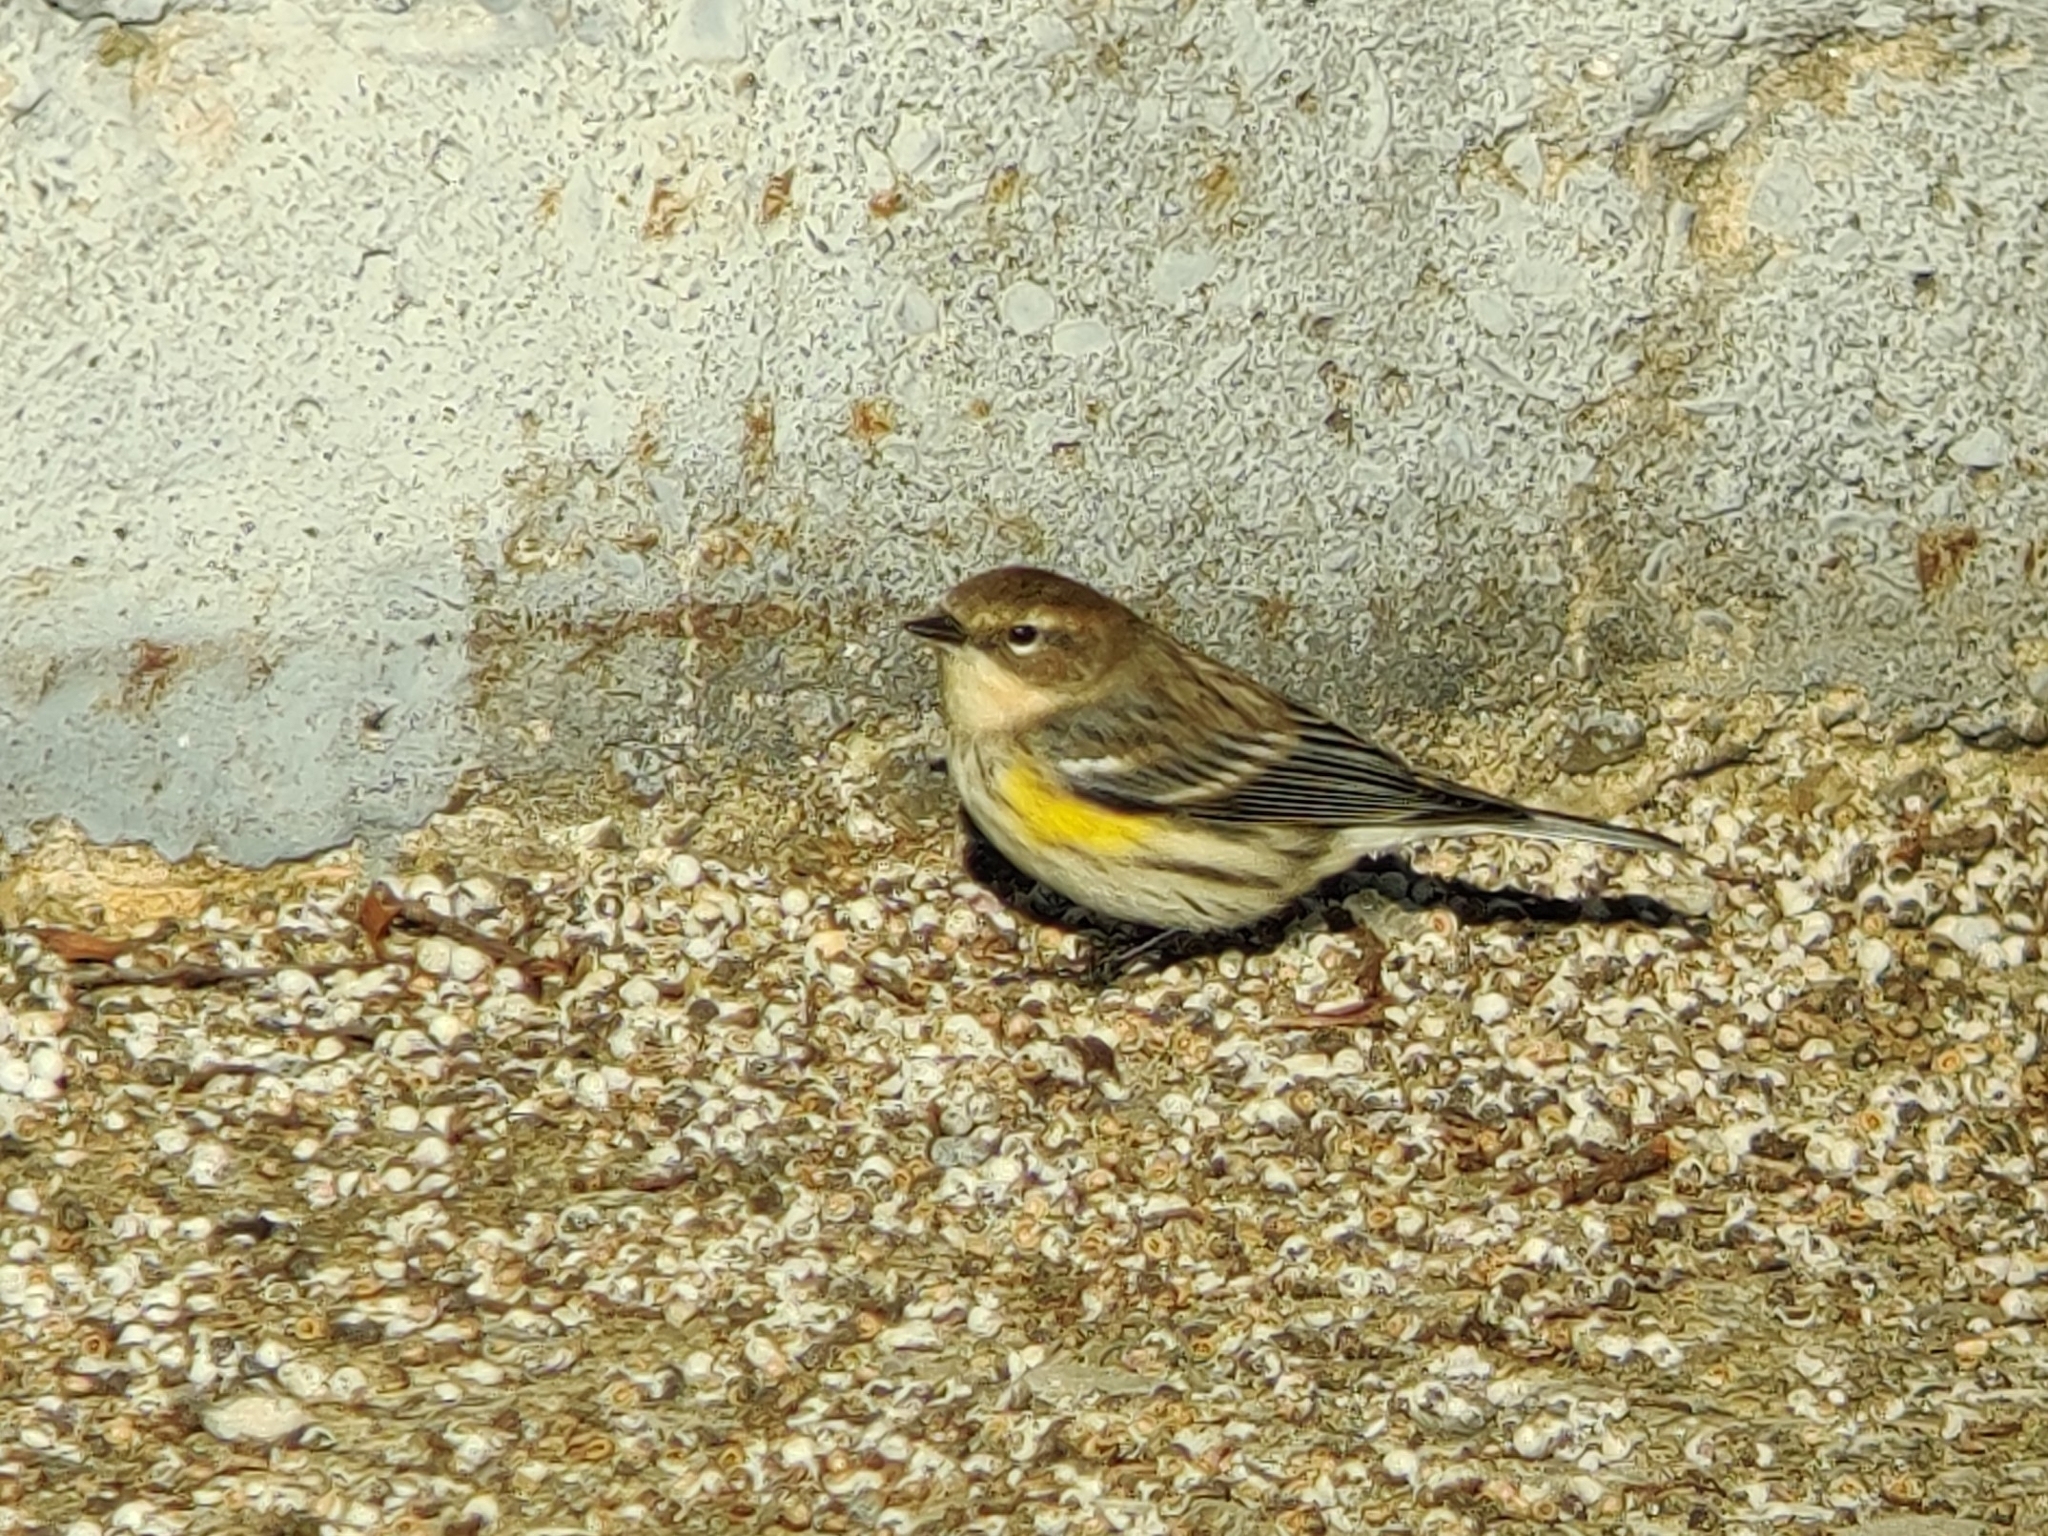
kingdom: Animalia
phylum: Chordata
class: Aves
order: Passeriformes
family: Parulidae
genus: Setophaga
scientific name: Setophaga coronata
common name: Myrtle warbler
